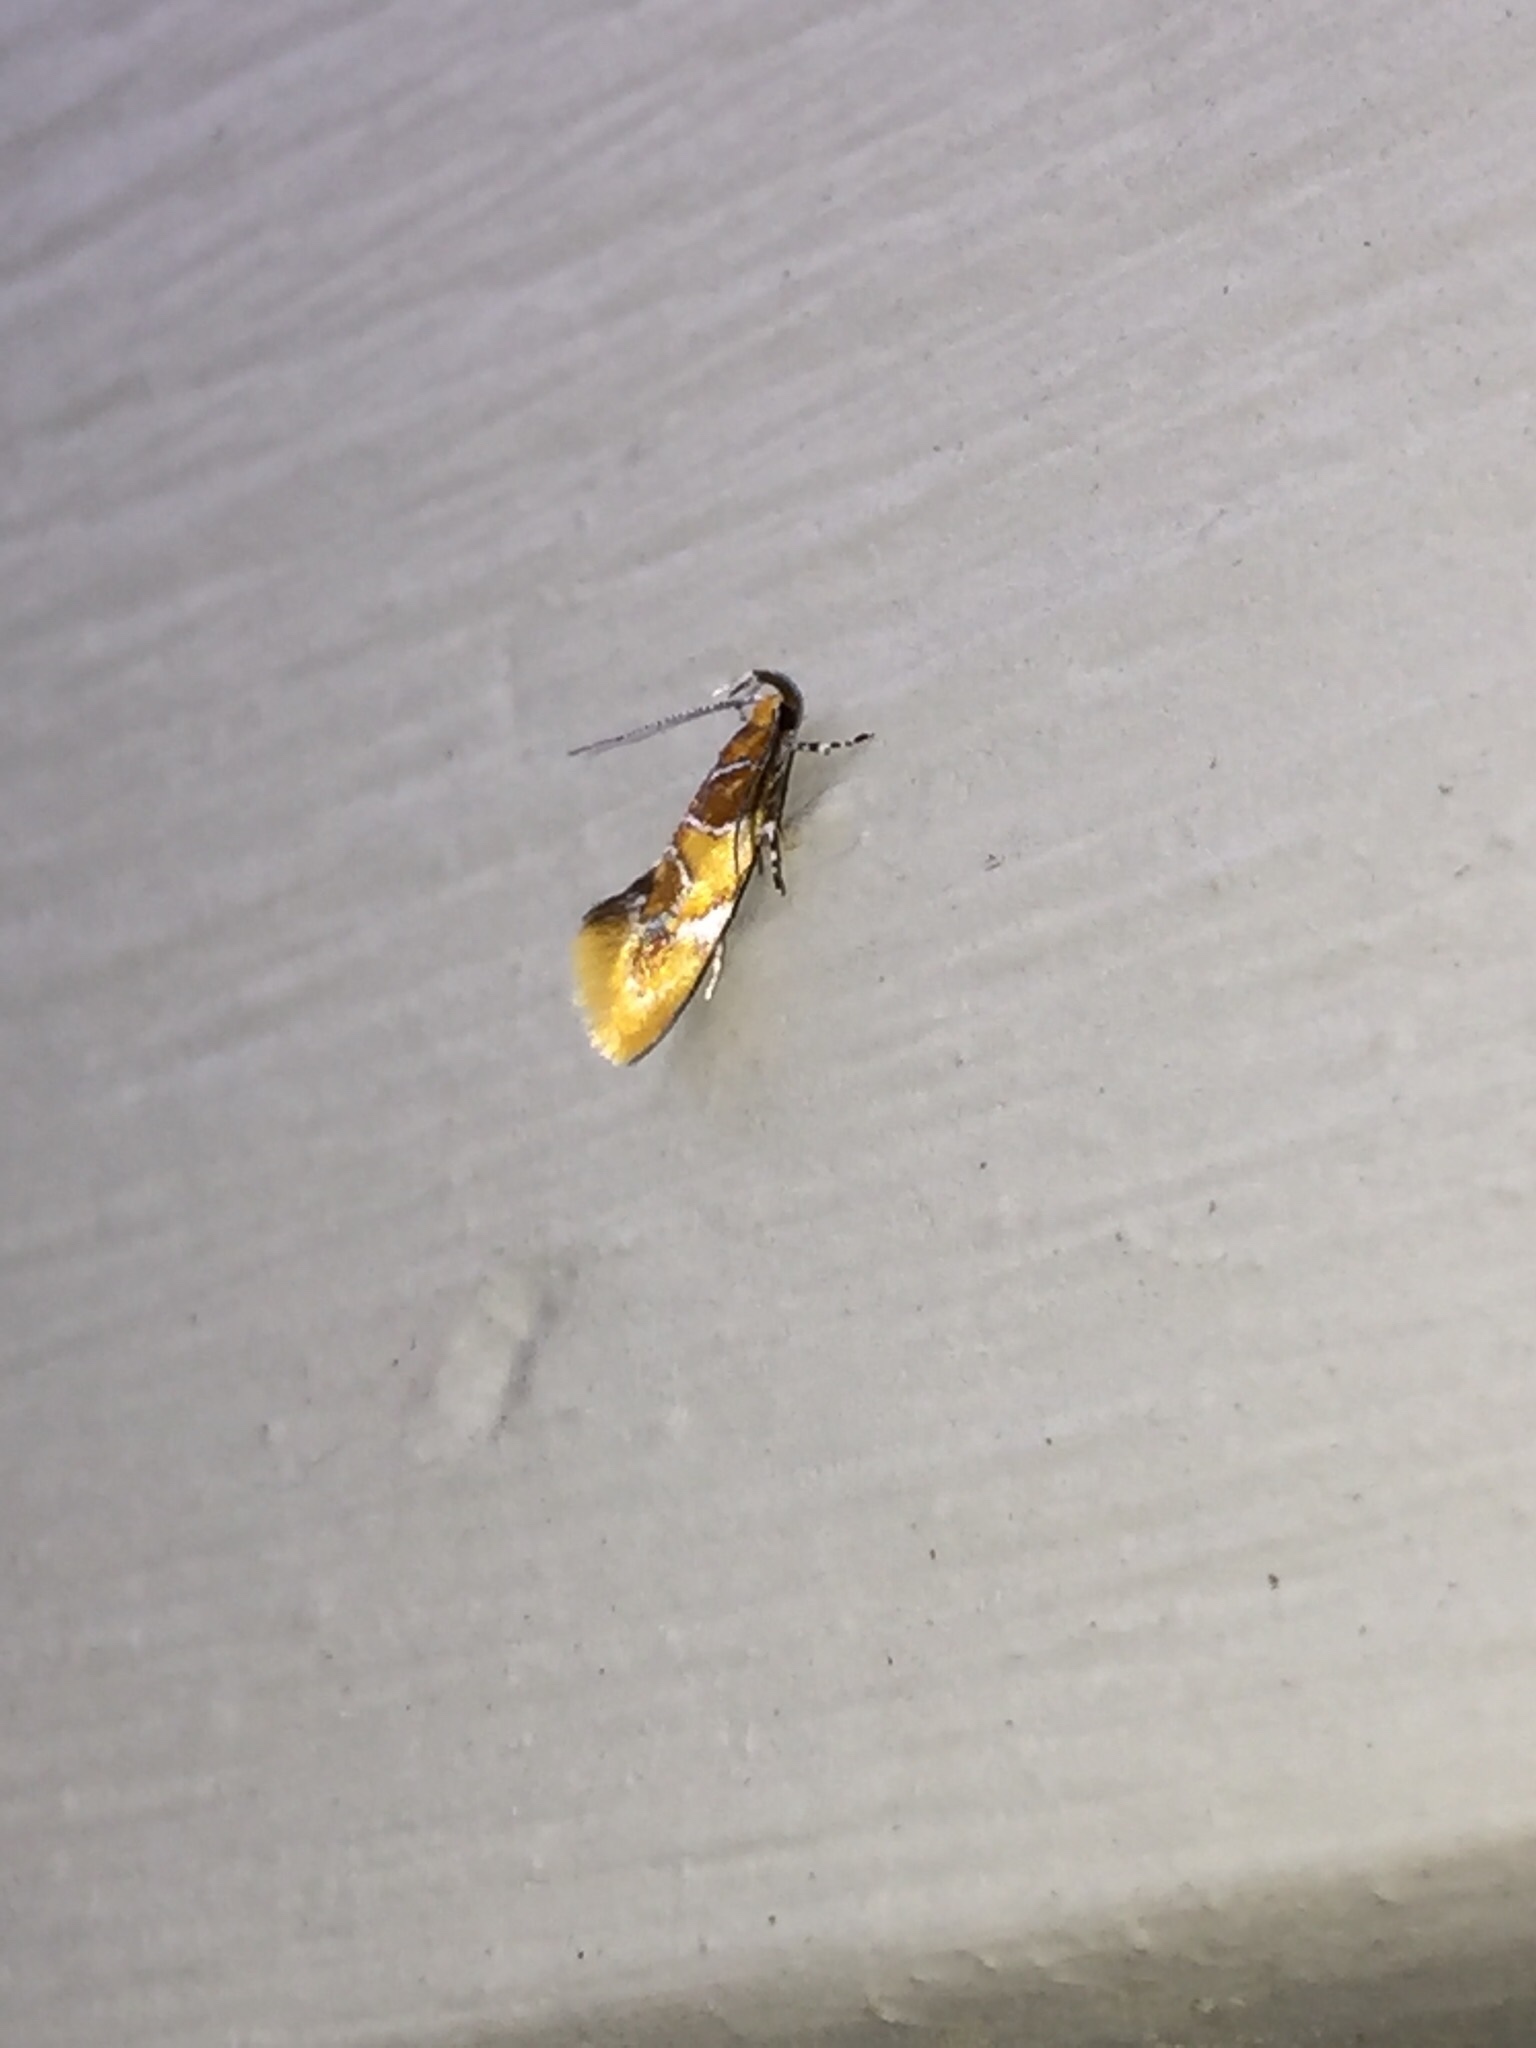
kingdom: Animalia
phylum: Arthropoda
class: Insecta
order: Lepidoptera
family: Oecophoridae
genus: Callima
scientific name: Callima argenticinctella
